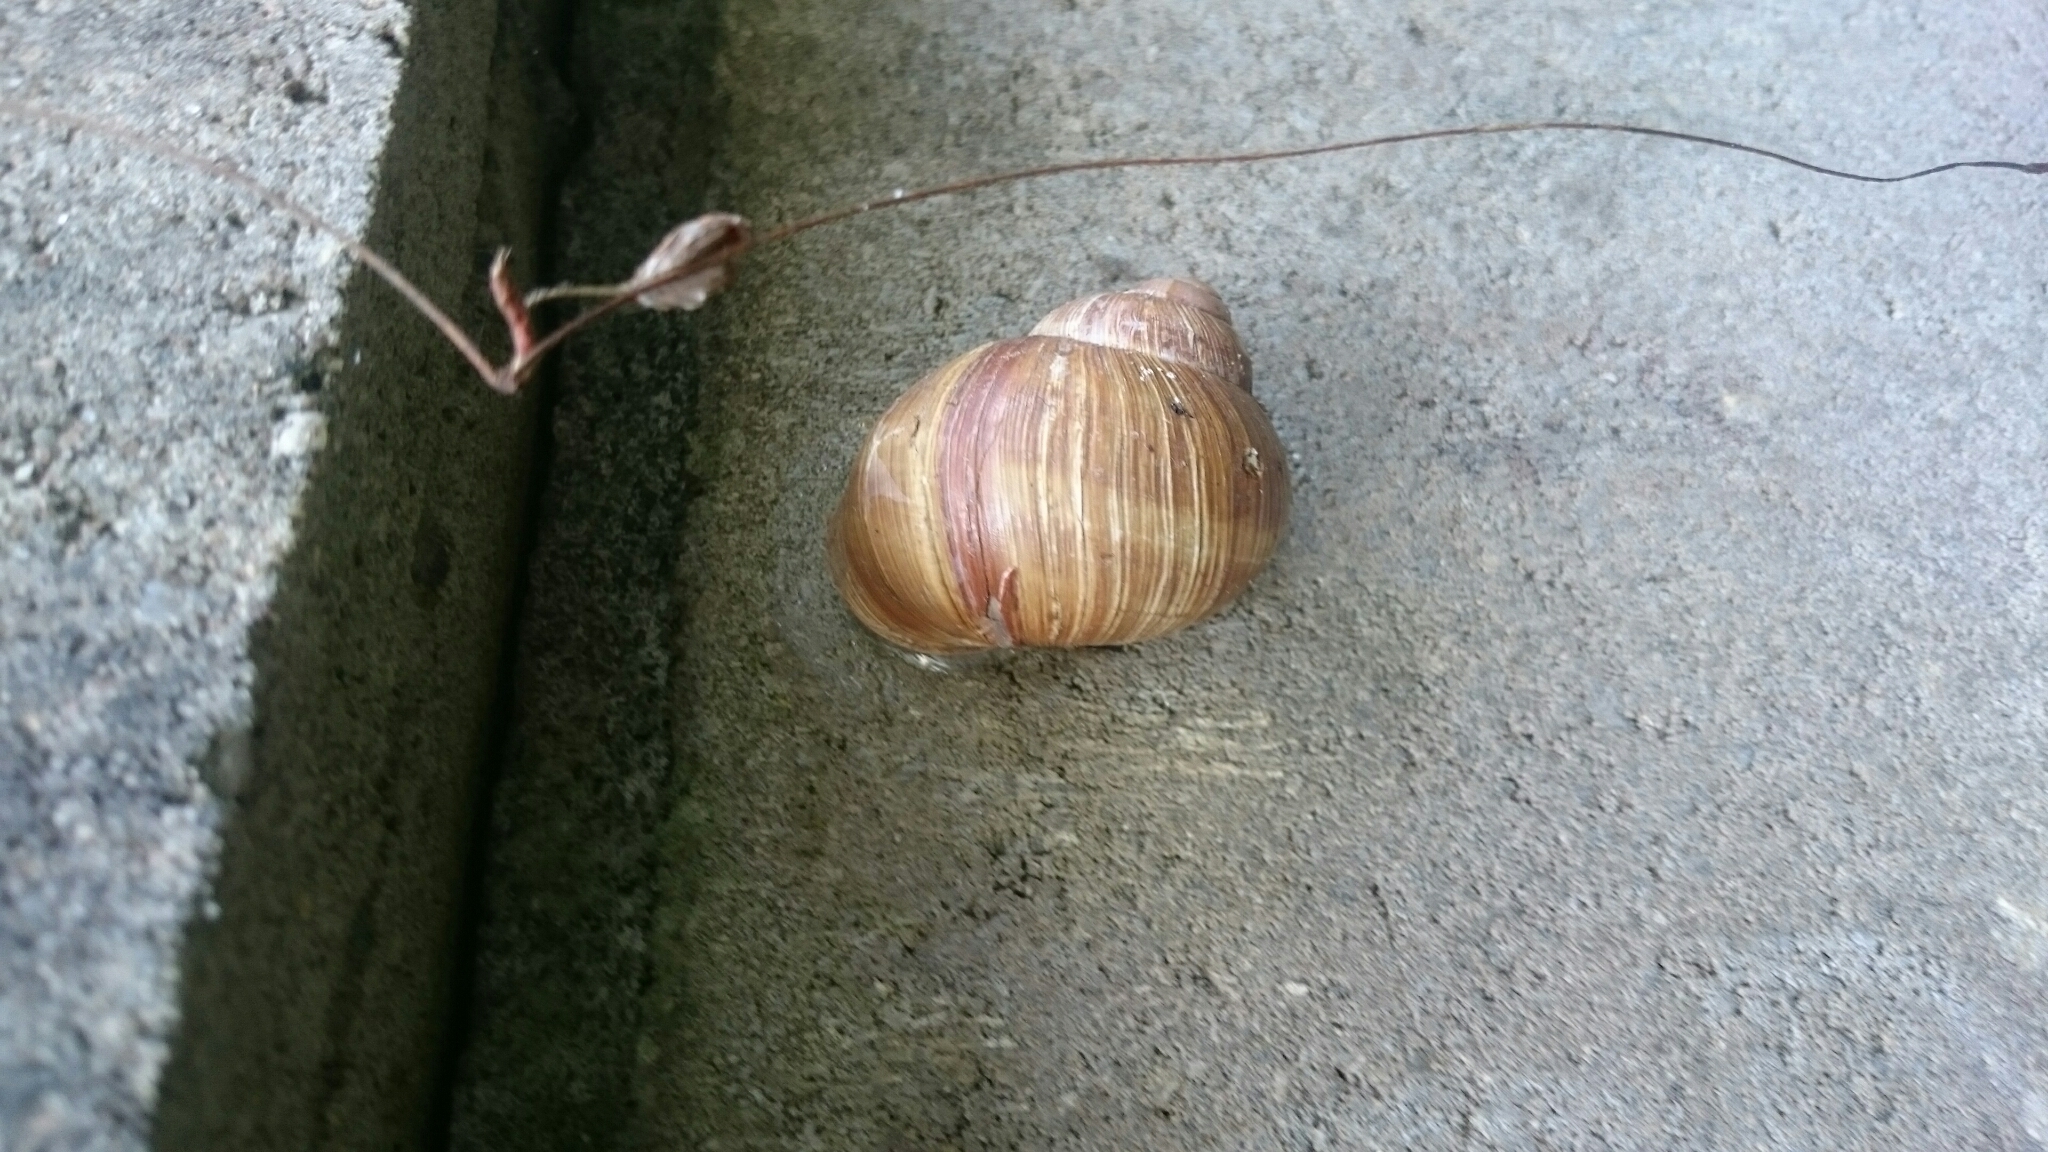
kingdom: Animalia
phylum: Mollusca
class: Gastropoda
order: Stylommatophora
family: Helicidae
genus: Helix
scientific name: Helix pomatia
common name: Roman snail
